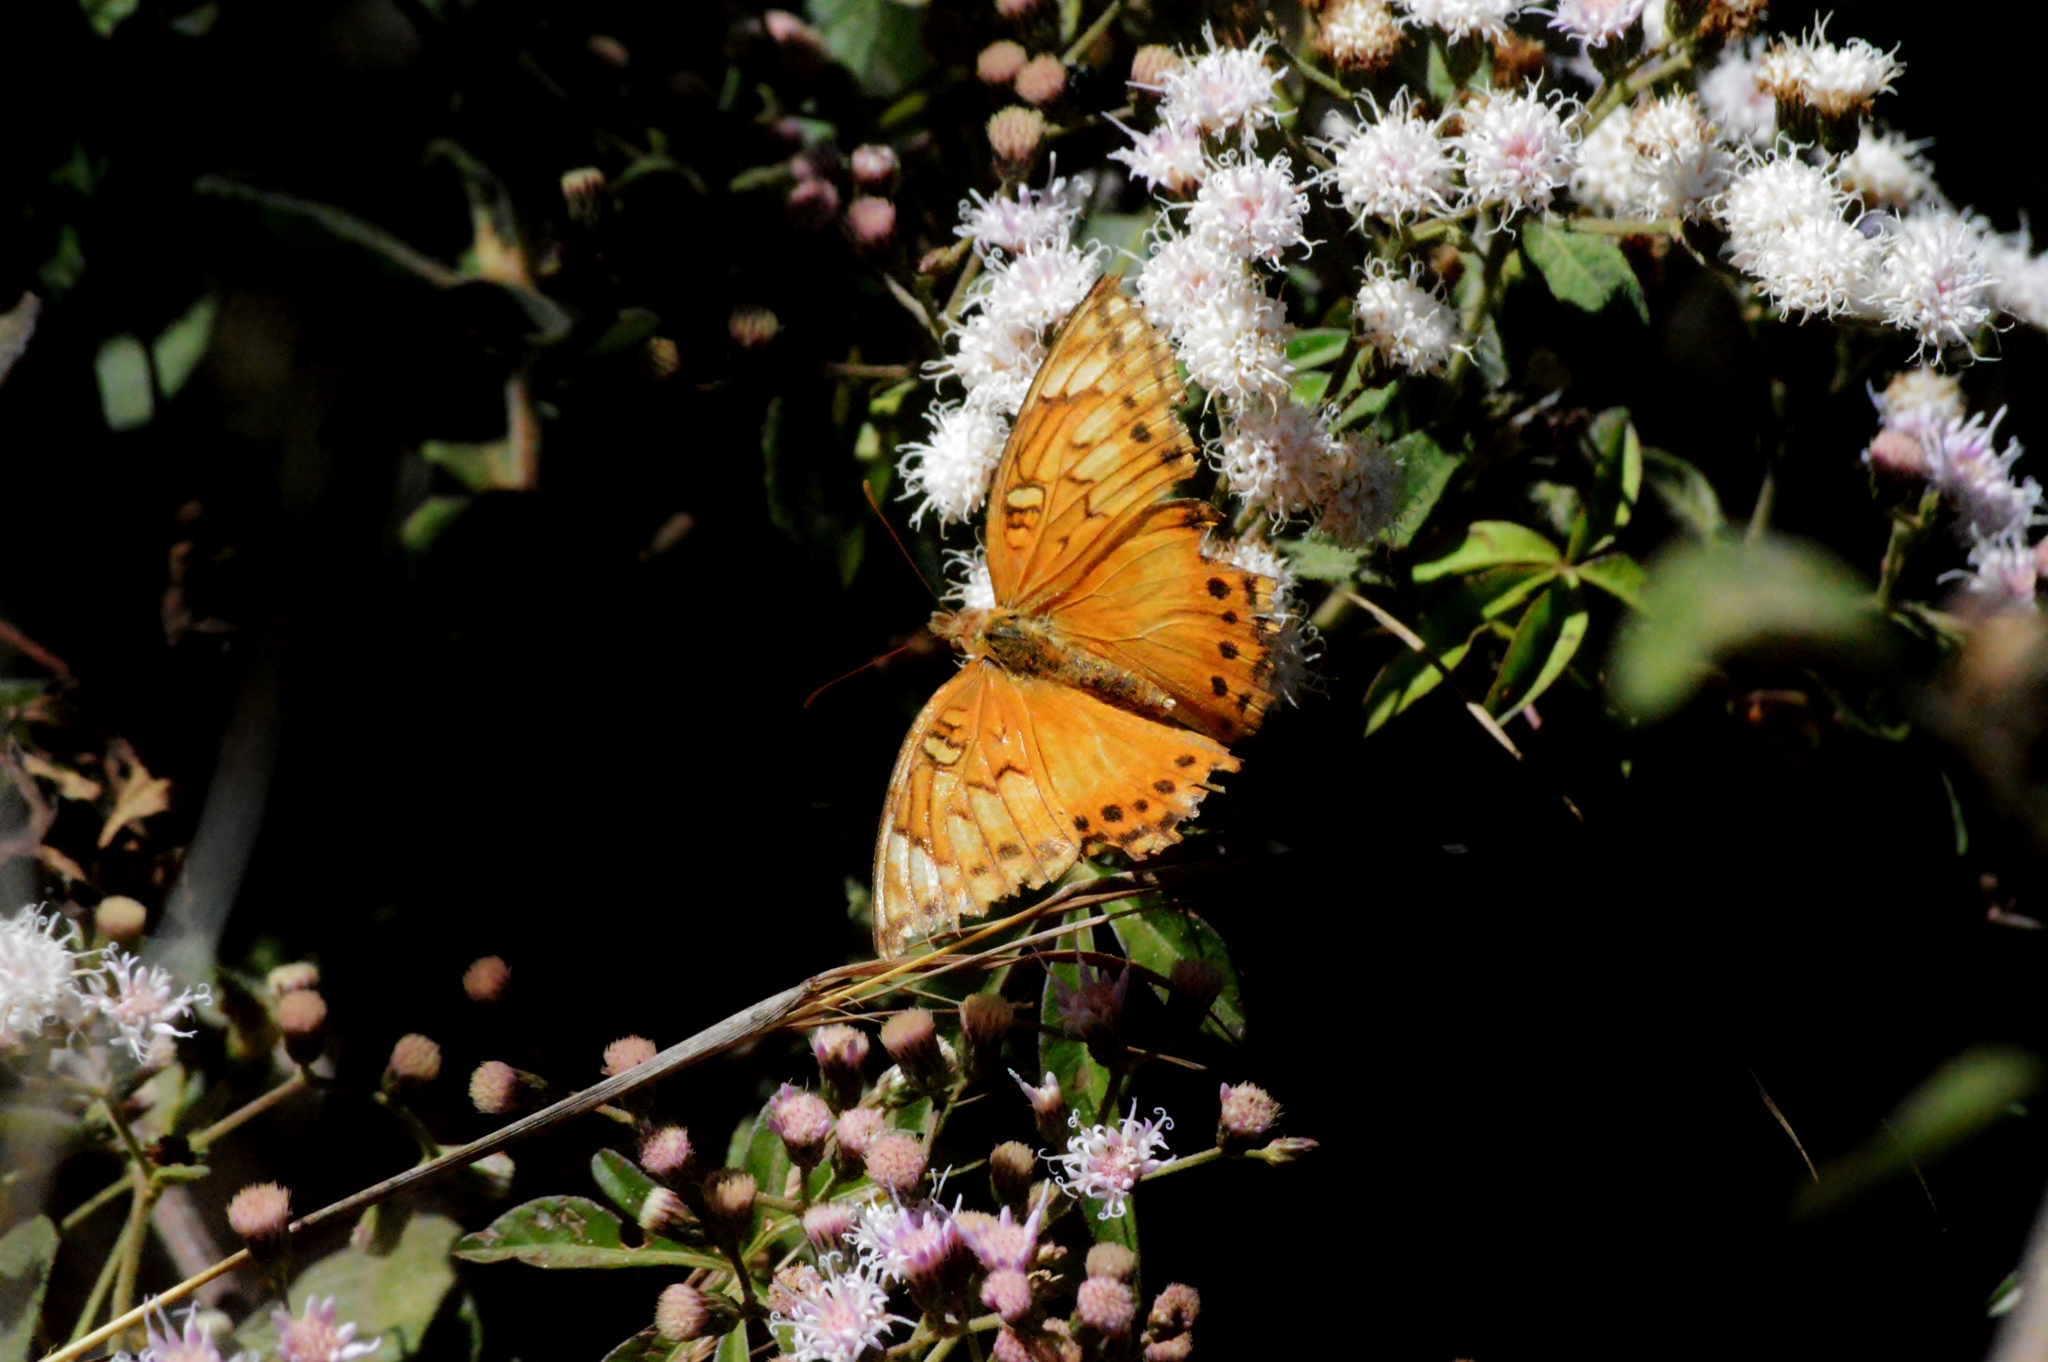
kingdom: Animalia
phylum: Arthropoda
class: Insecta
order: Lepidoptera
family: Nymphalidae
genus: Euptoieta
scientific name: Euptoieta hegesia
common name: Mexican fritillary
